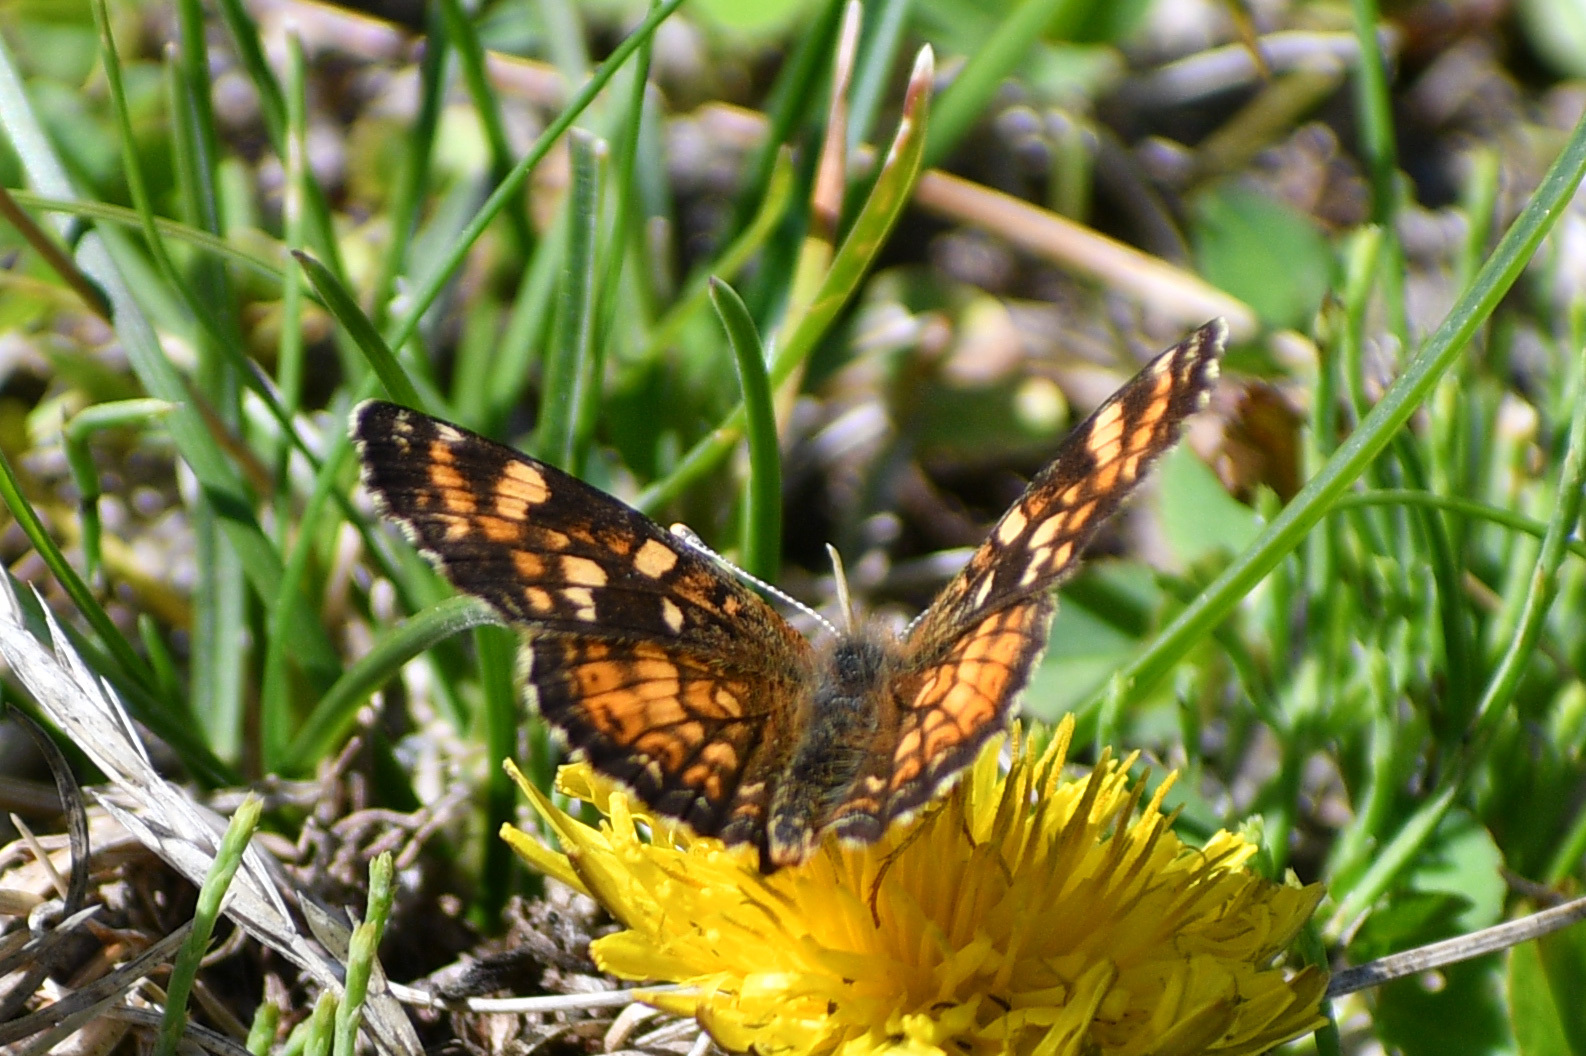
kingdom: Animalia
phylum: Arthropoda
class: Insecta
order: Lepidoptera
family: Nymphalidae
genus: Phyciodes
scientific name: Phyciodes tharos
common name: Pearl crescent
